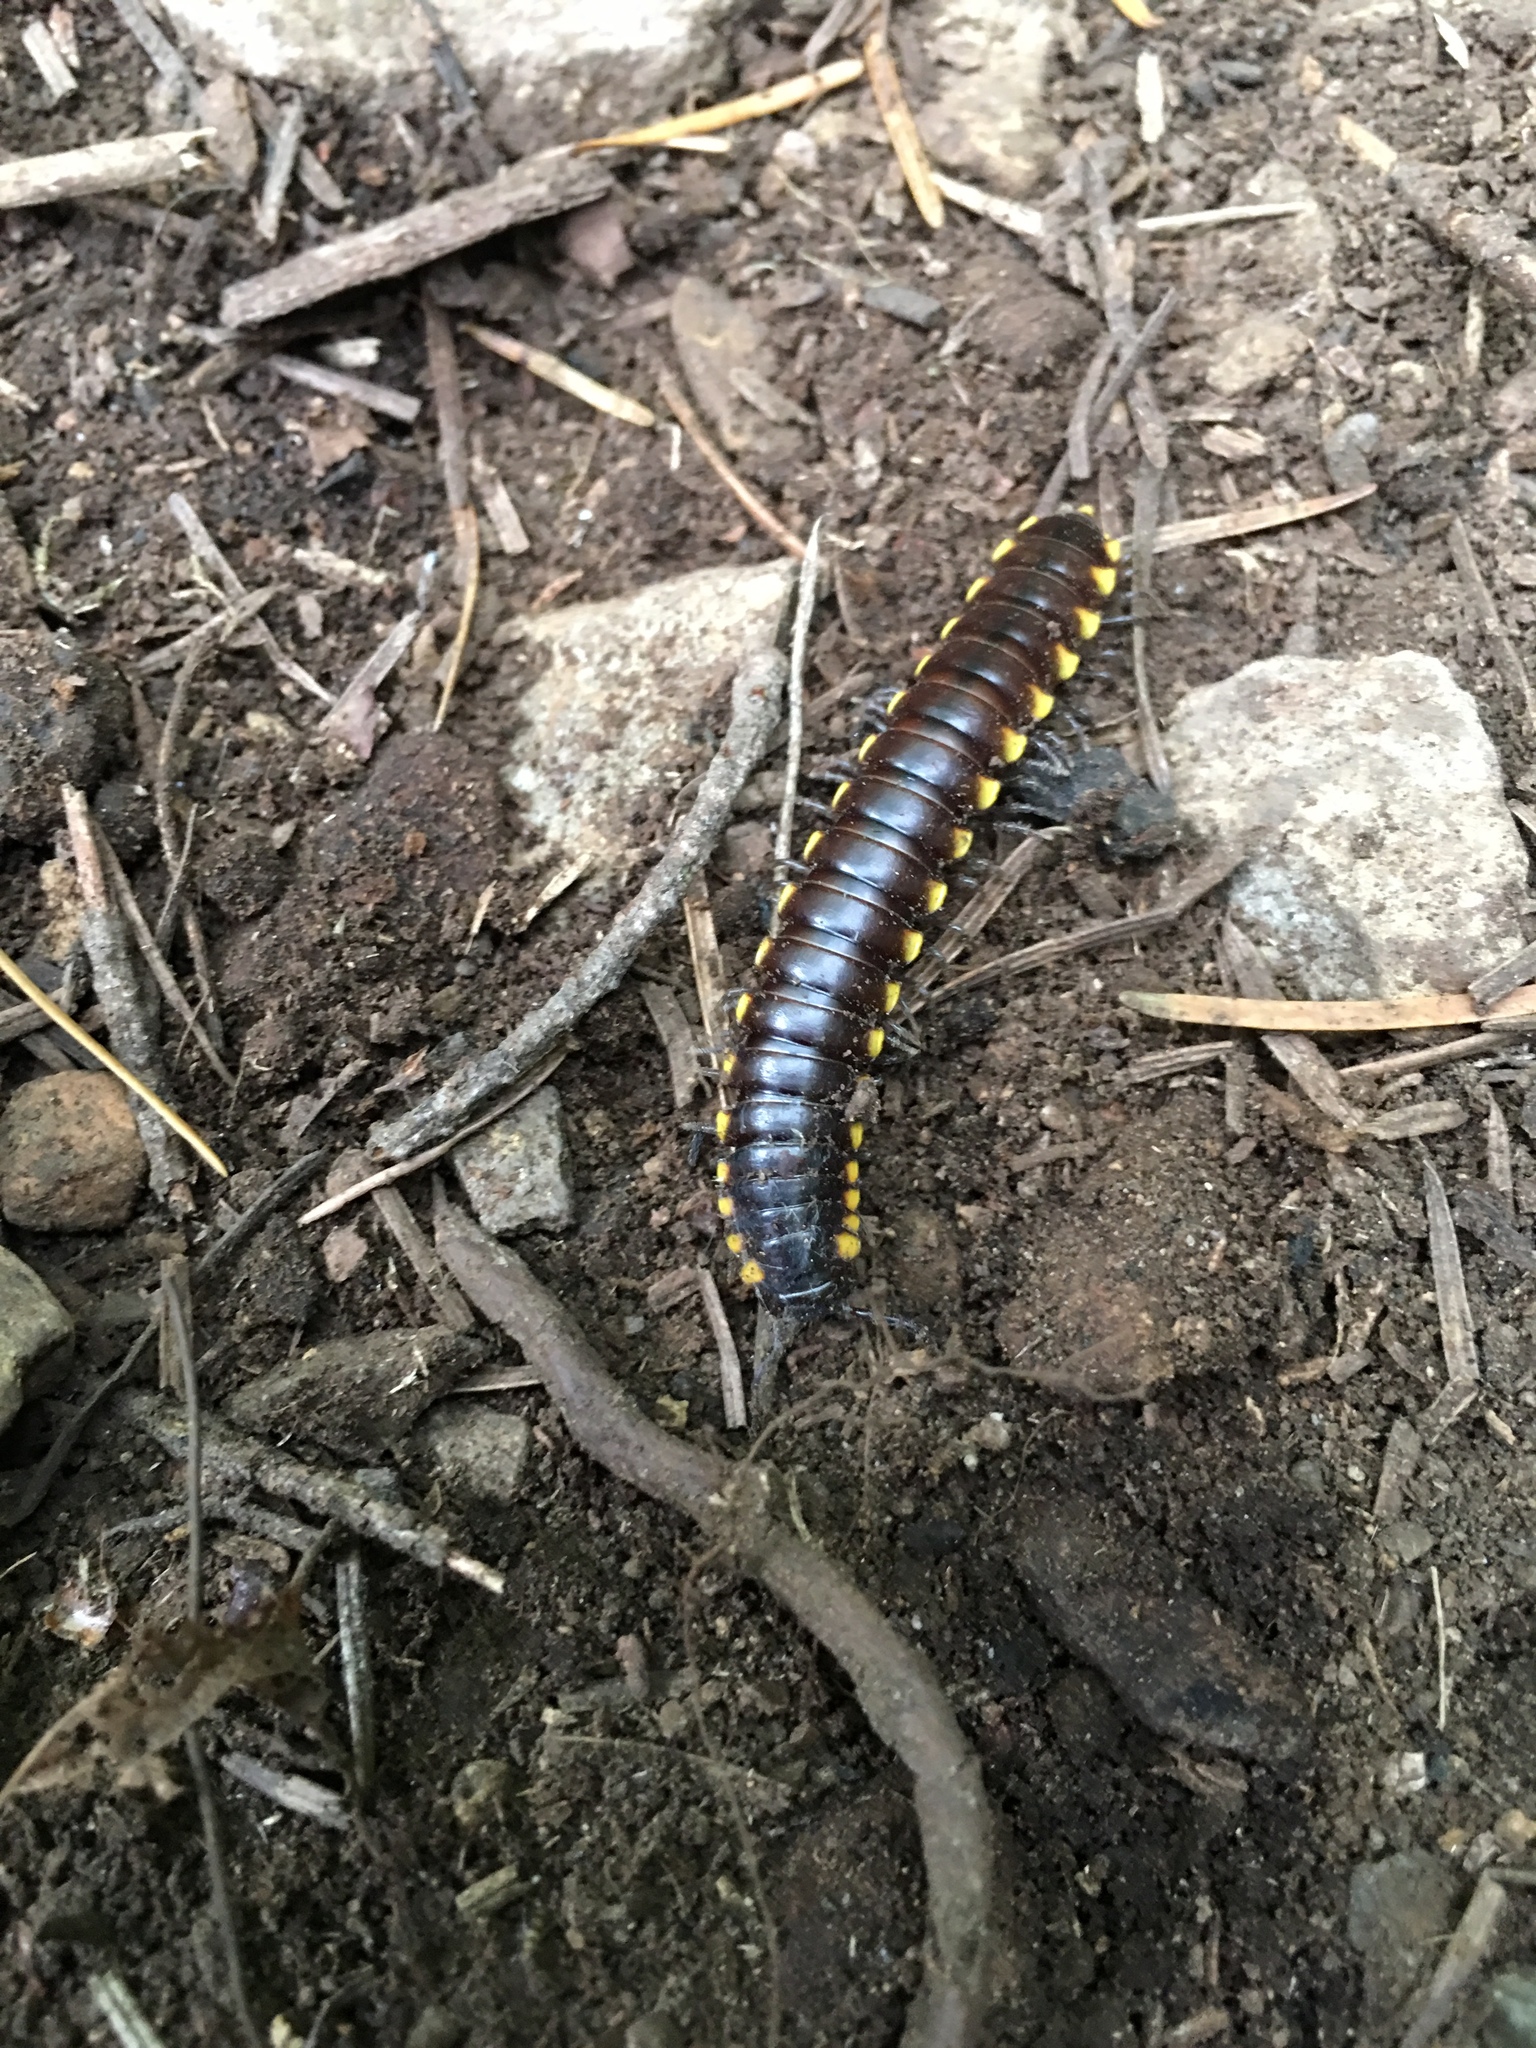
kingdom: Animalia
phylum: Arthropoda
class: Diplopoda
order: Polydesmida
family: Xystodesmidae
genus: Harpaphe
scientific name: Harpaphe haydeniana
